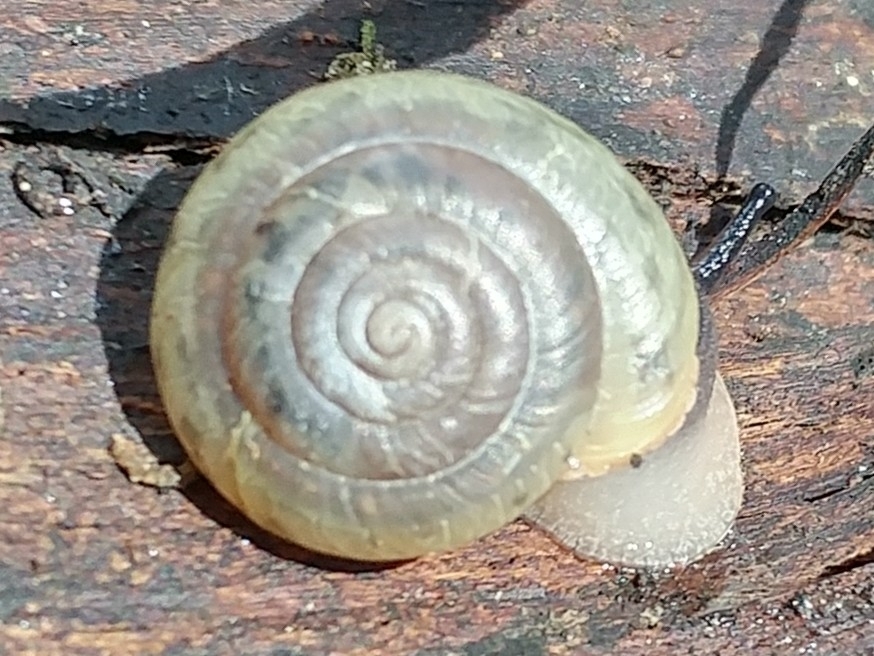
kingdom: Animalia
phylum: Mollusca
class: Gastropoda
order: Stylommatophora
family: Polygyridae
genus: Ashmunella
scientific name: Ashmunella rhyssa
